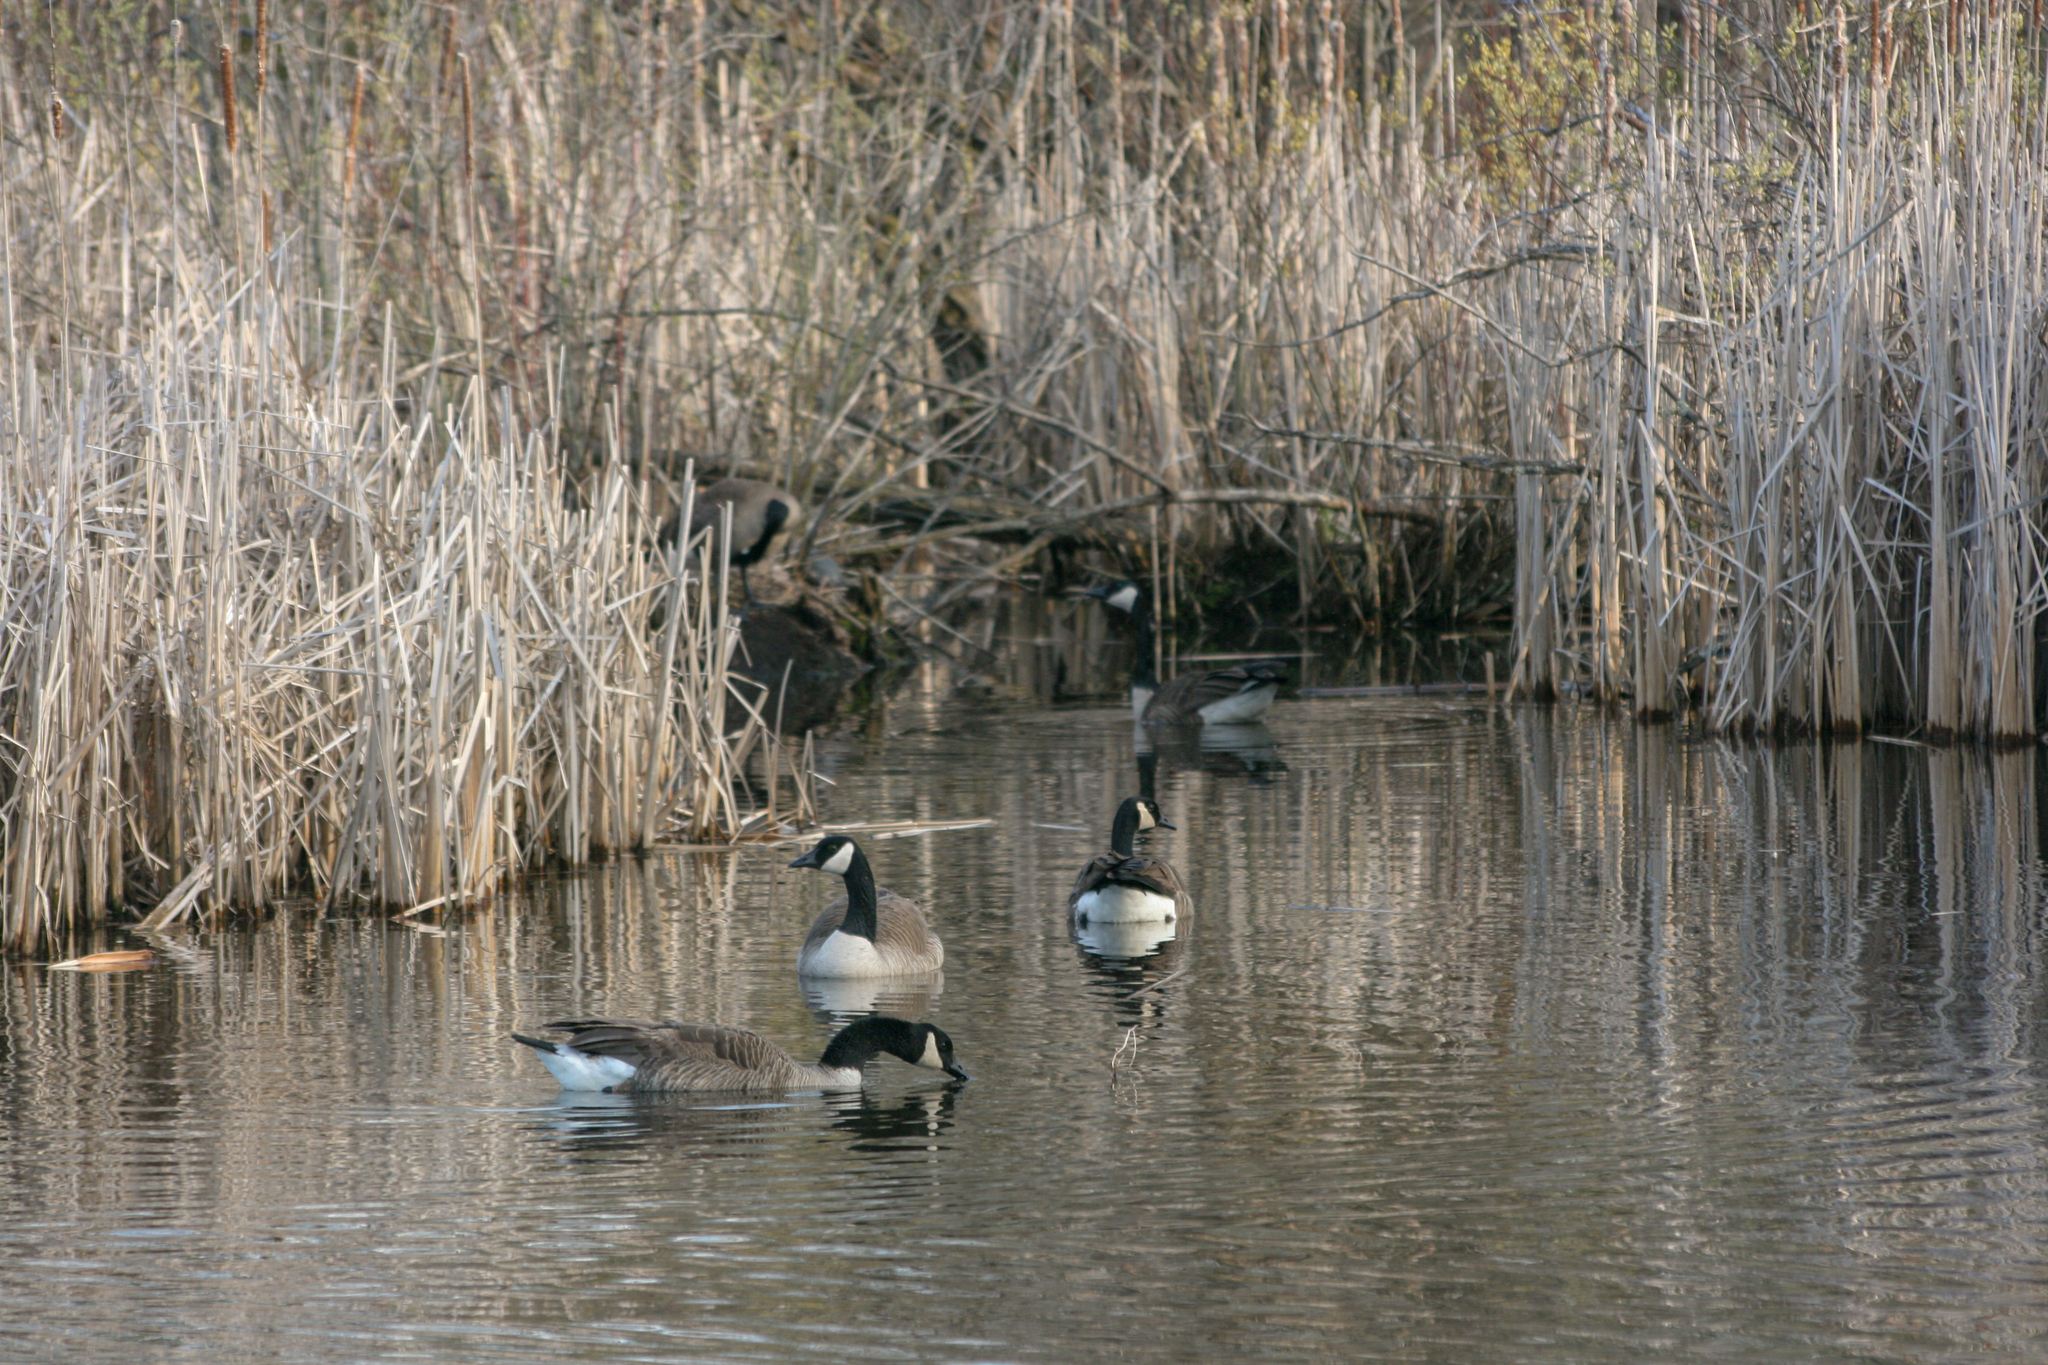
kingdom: Animalia
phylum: Chordata
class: Aves
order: Anseriformes
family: Anatidae
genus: Branta
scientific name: Branta canadensis
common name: Canada goose
